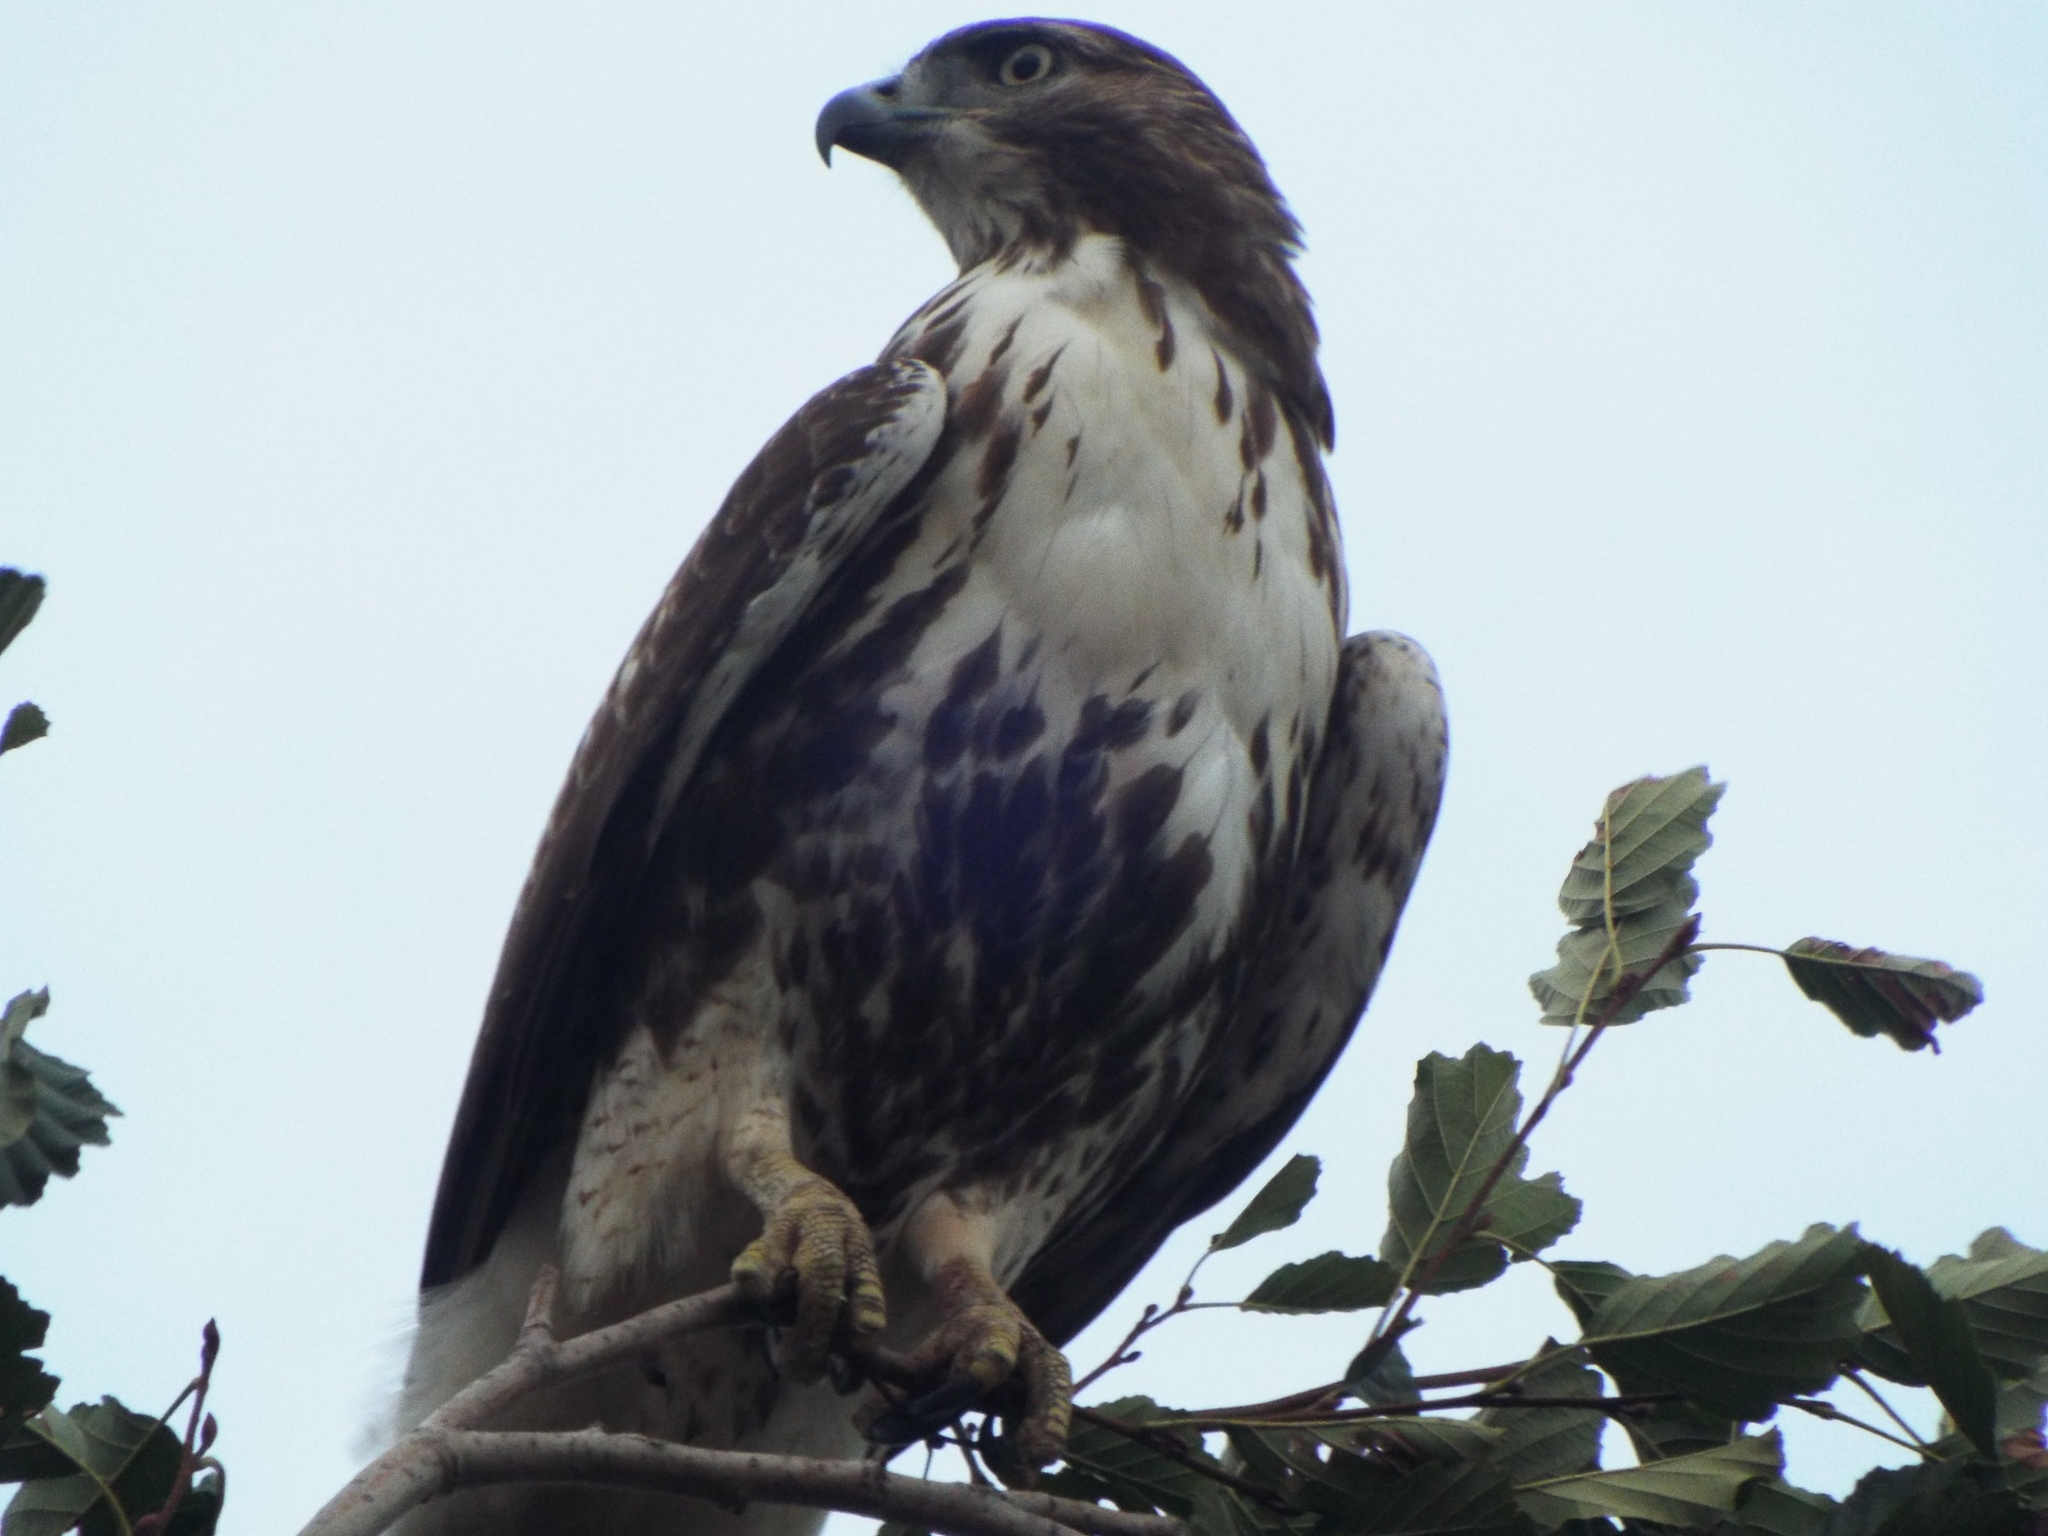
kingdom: Animalia
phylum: Chordata
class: Aves
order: Accipitriformes
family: Accipitridae
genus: Buteo
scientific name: Buteo jamaicensis
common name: Red-tailed hawk
